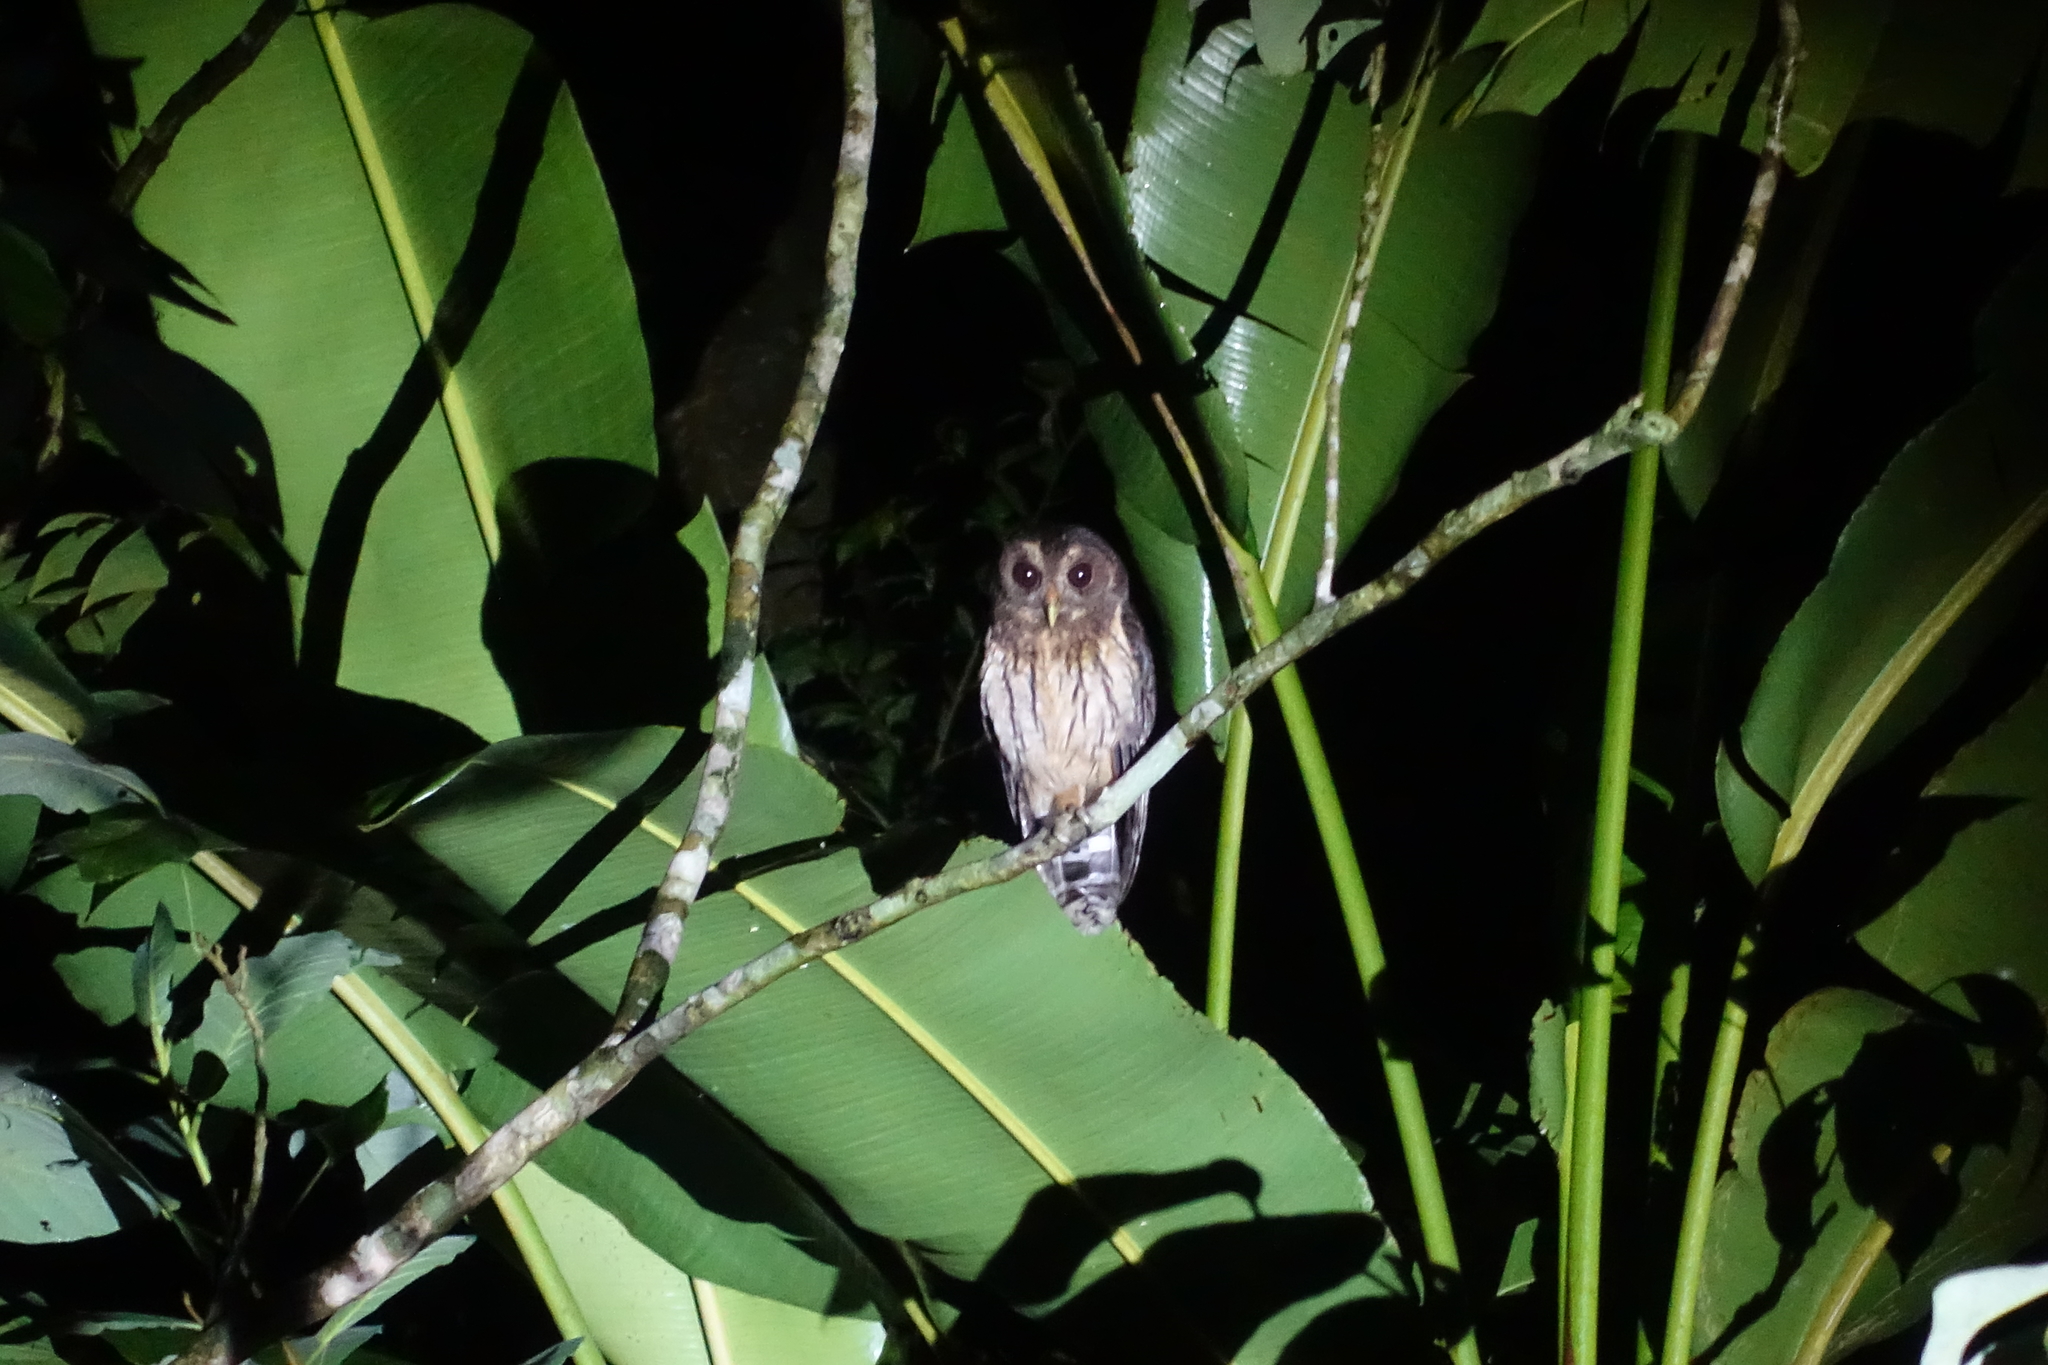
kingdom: Animalia
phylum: Chordata
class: Aves
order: Strigiformes
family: Strigidae
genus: Strix
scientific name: Strix virgata
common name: Mottled owl
